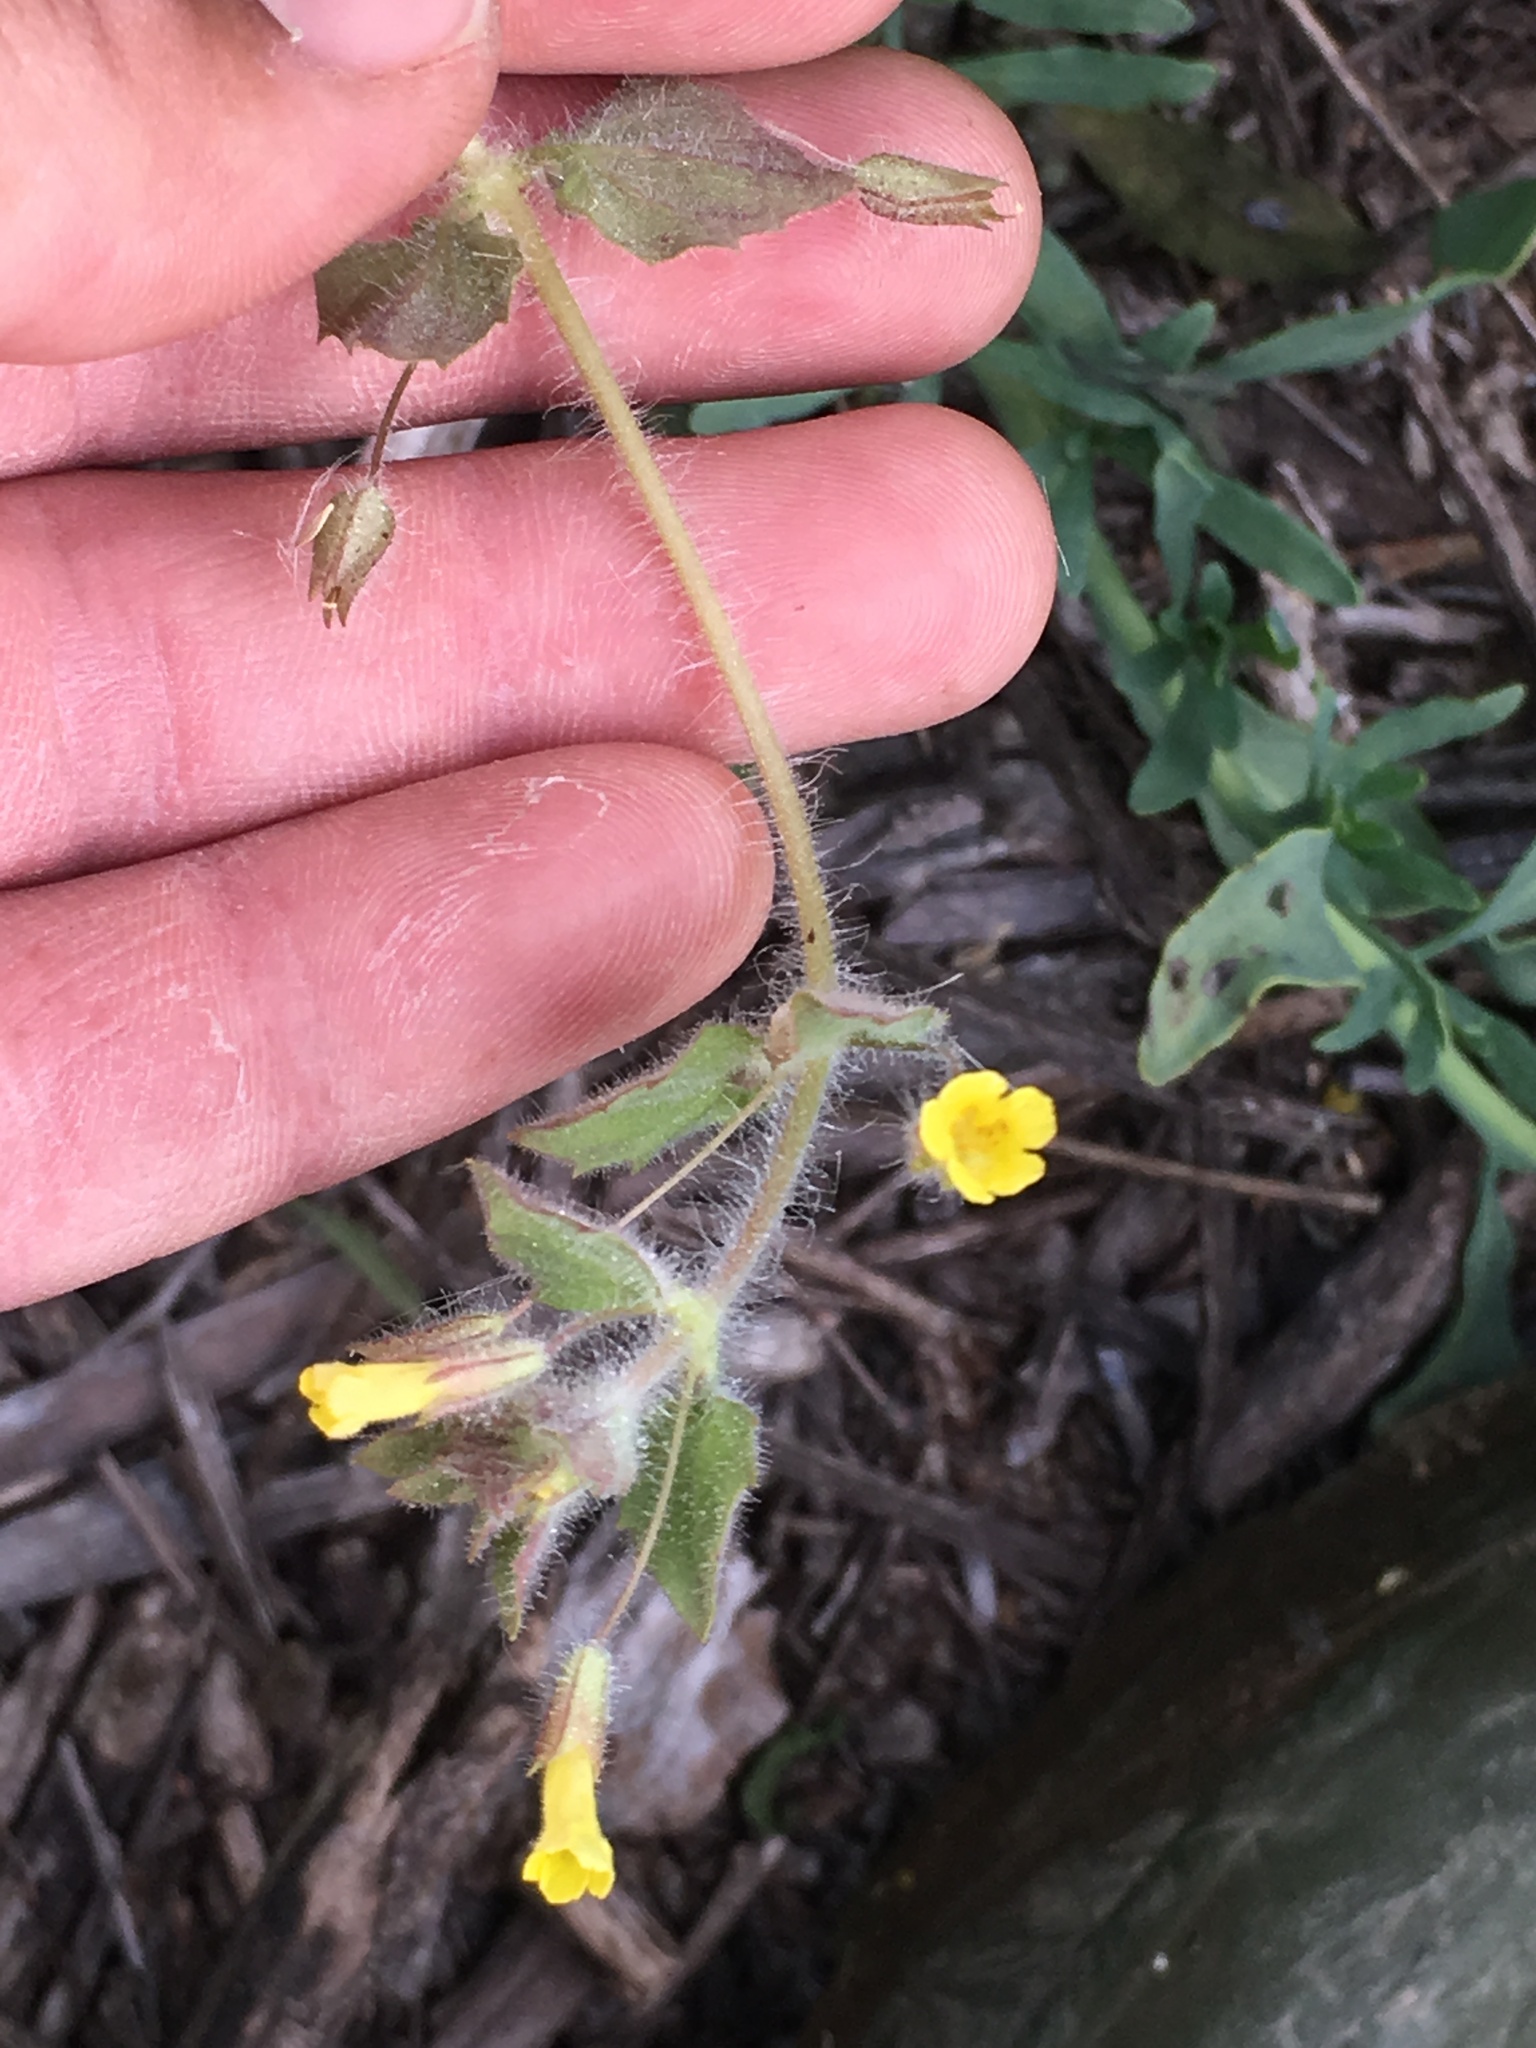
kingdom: Plantae
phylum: Tracheophyta
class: Magnoliopsida
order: Lamiales
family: Phrymaceae
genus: Erythranthe
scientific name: Erythranthe floribunda
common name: Floriferous monkeyflower
